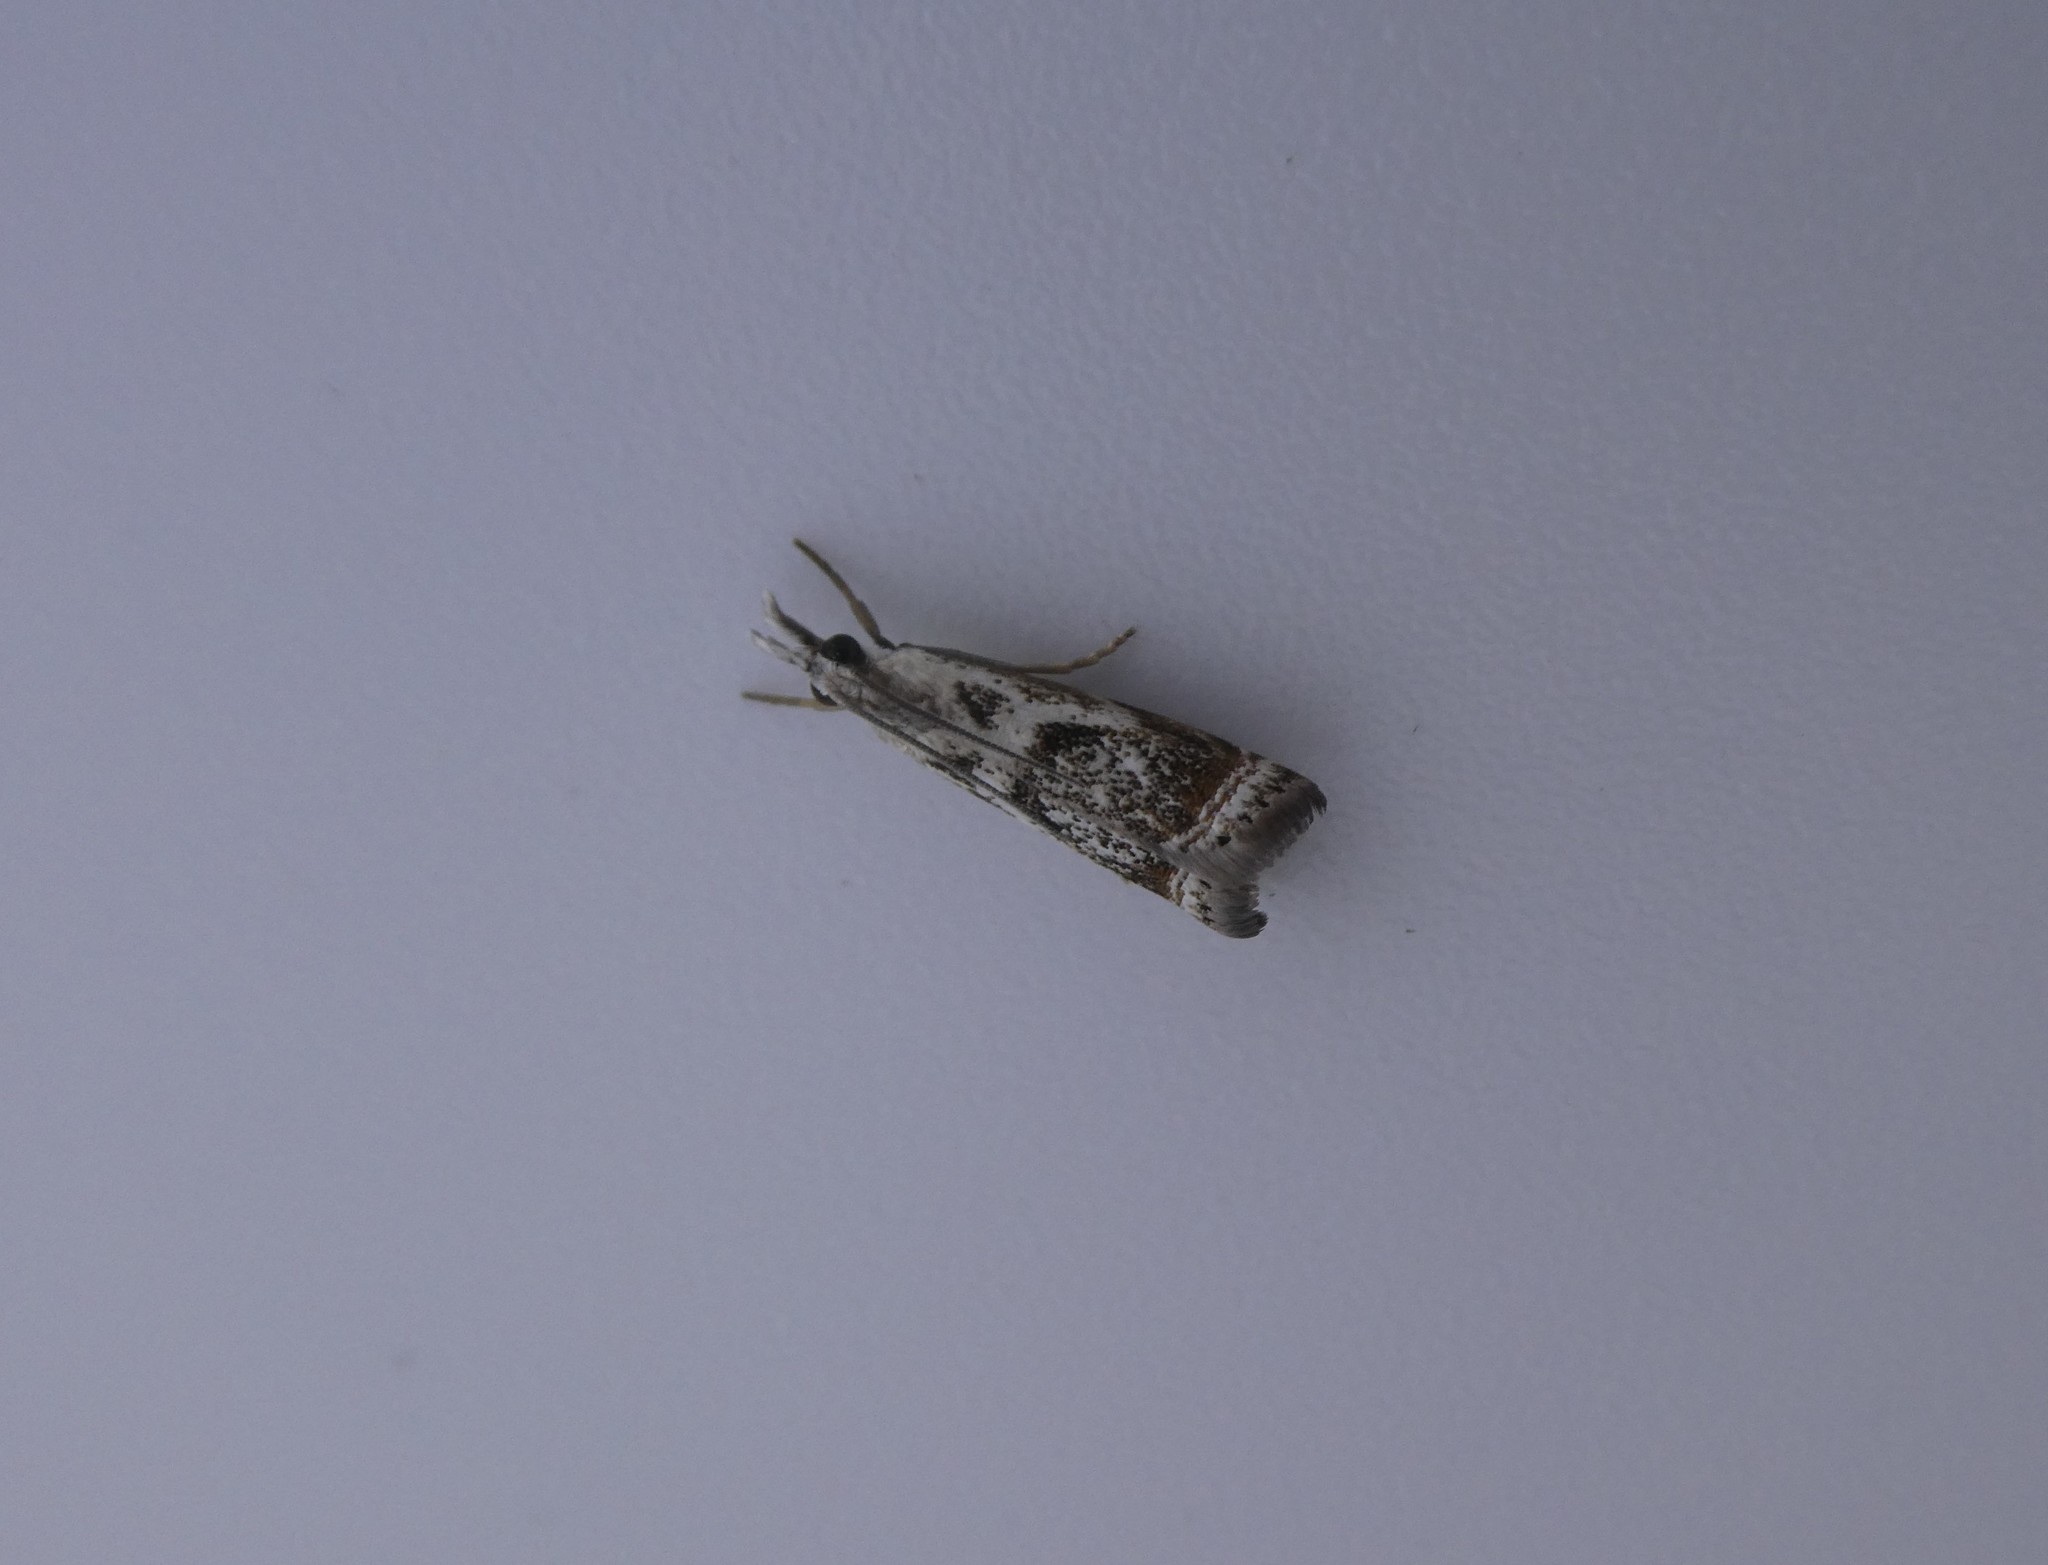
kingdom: Animalia
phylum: Arthropoda
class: Insecta
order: Lepidoptera
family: Crambidae
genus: Microcrambus
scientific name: Microcrambus elegans
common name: Elegant grass-veneer
